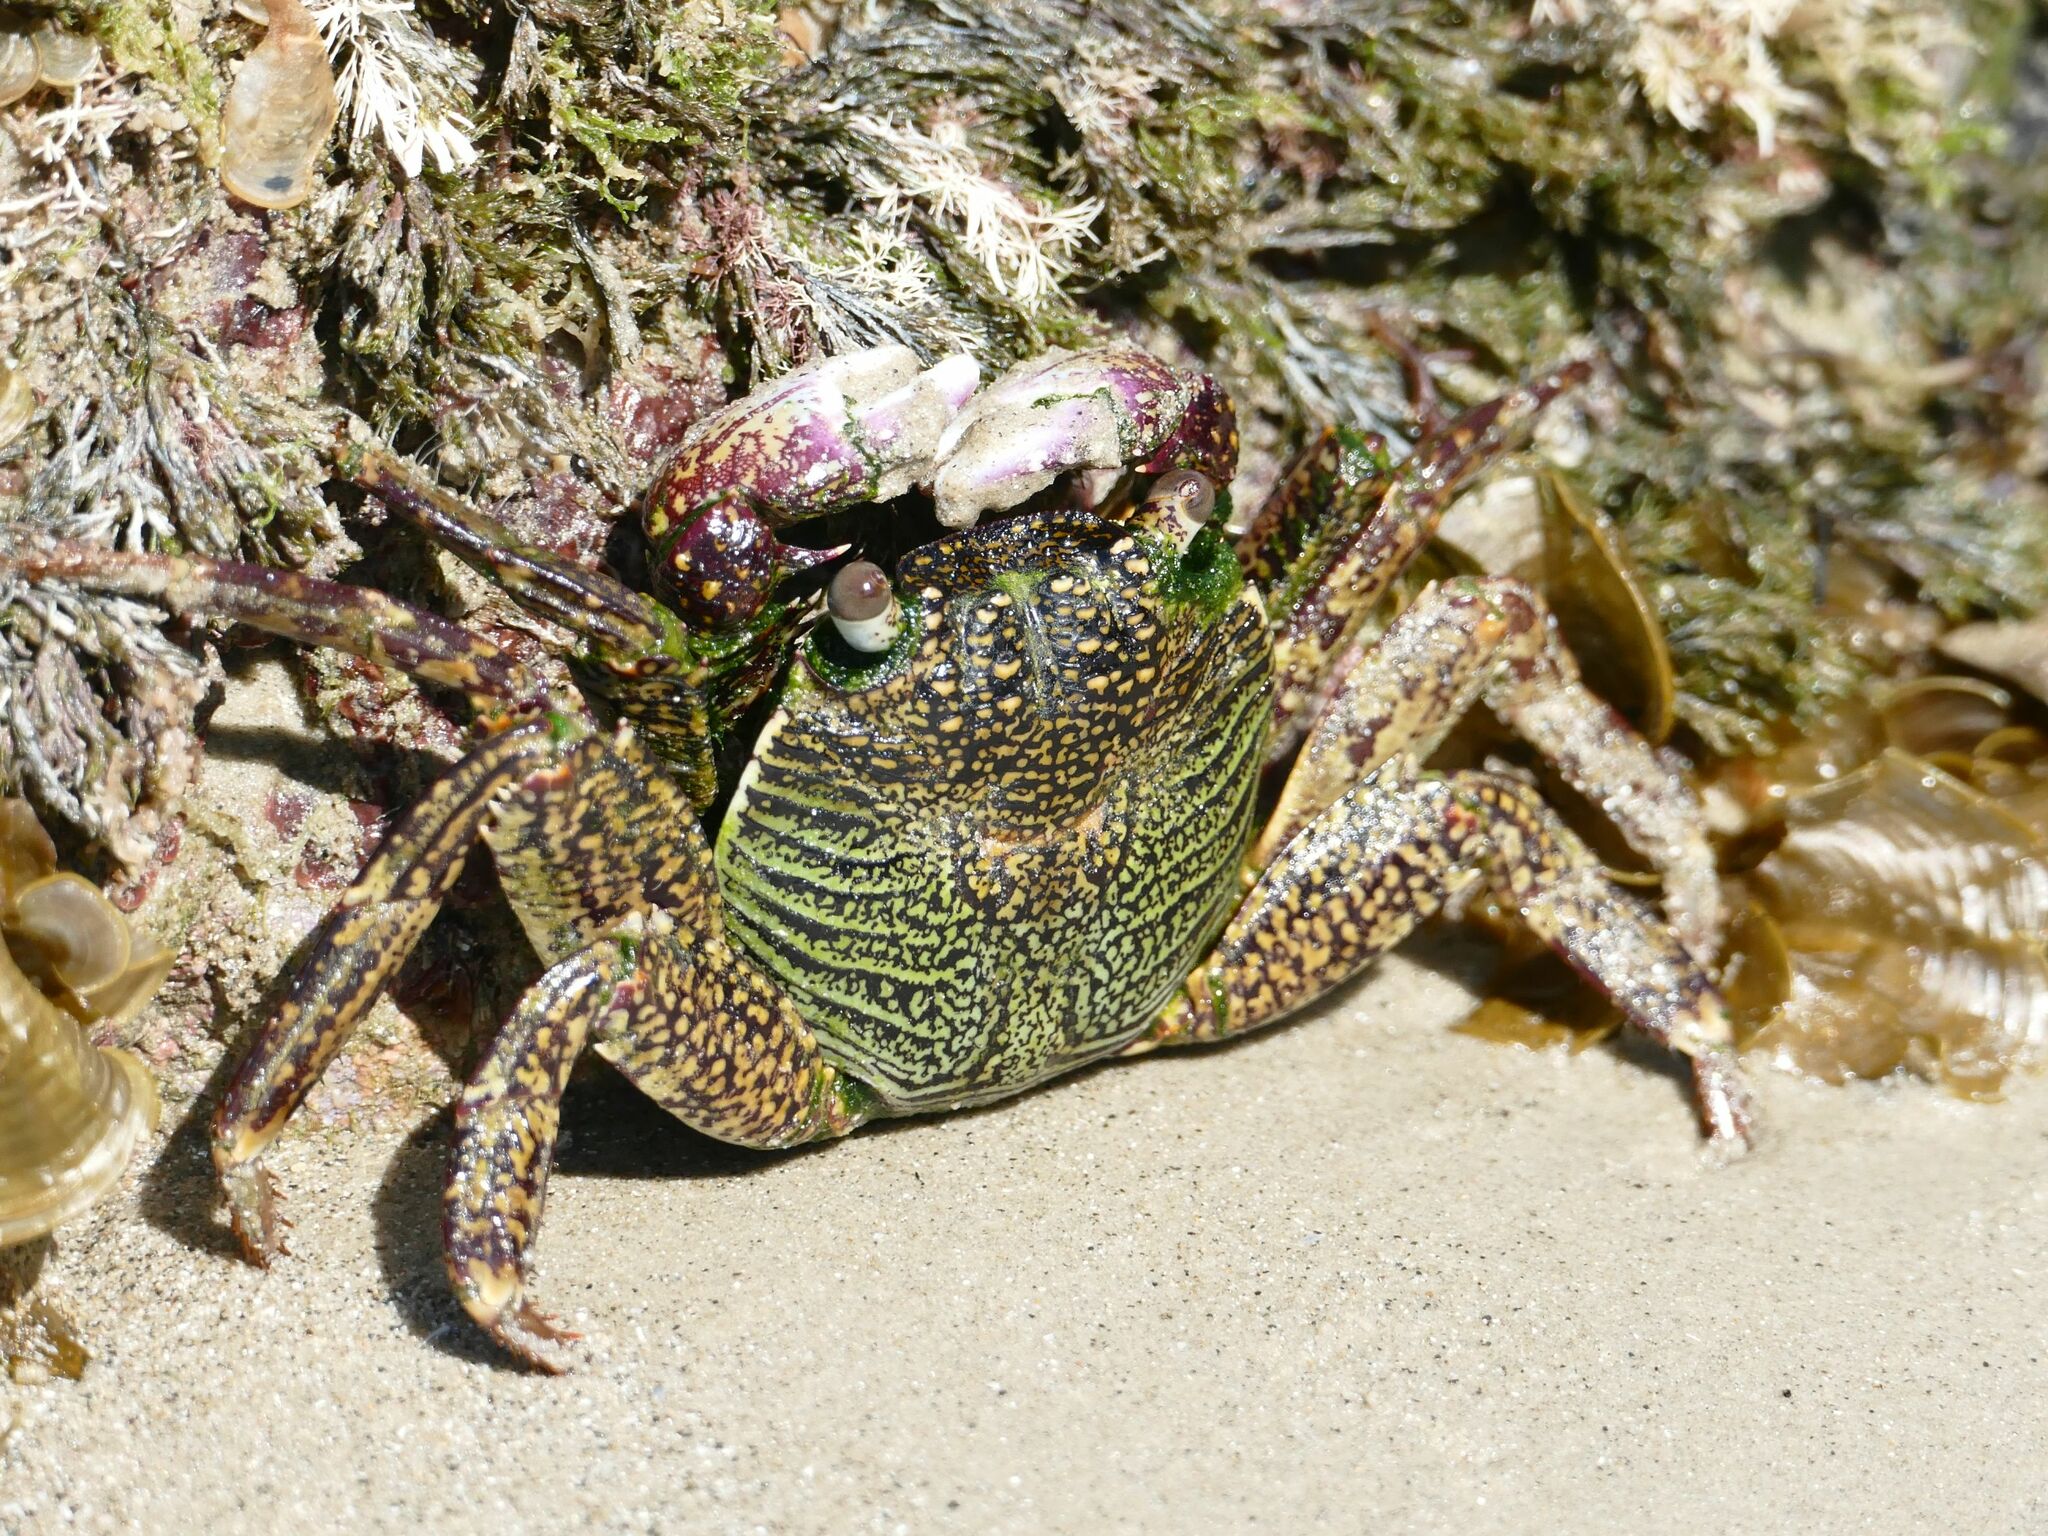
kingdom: Animalia
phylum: Arthropoda
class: Malacostraca
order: Decapoda
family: Grapsidae
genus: Grapsus
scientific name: Grapsus albolineatus
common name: Mottled lightfoot crab
